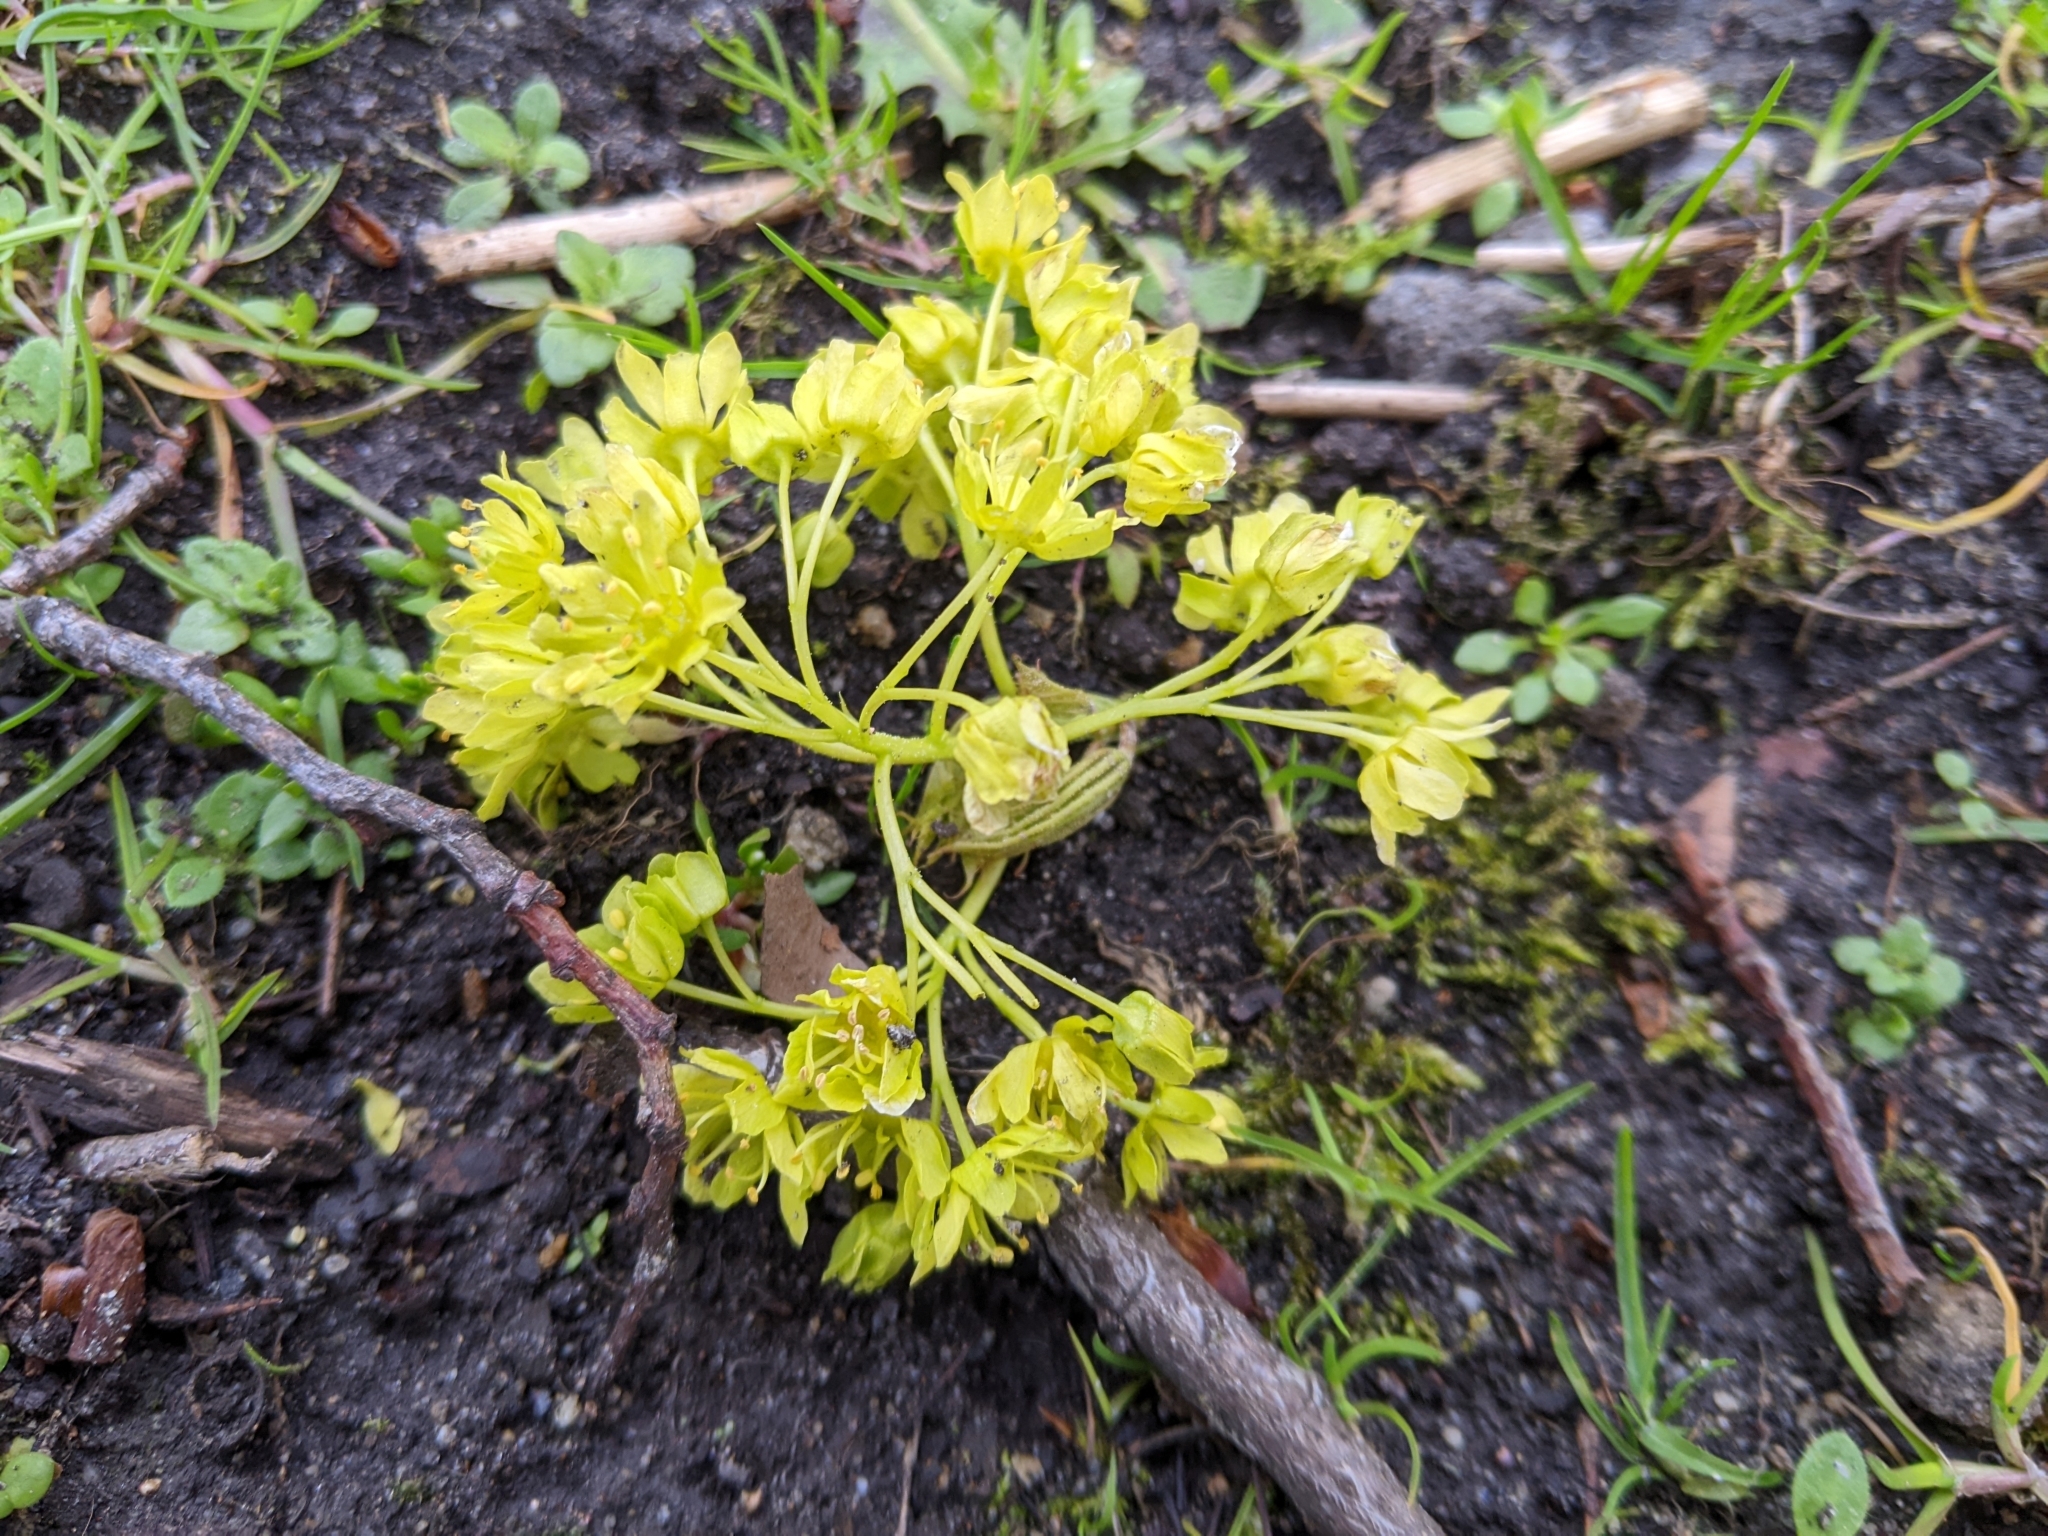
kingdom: Plantae
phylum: Tracheophyta
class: Magnoliopsida
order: Sapindales
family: Sapindaceae
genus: Acer
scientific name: Acer platanoides
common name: Norway maple
